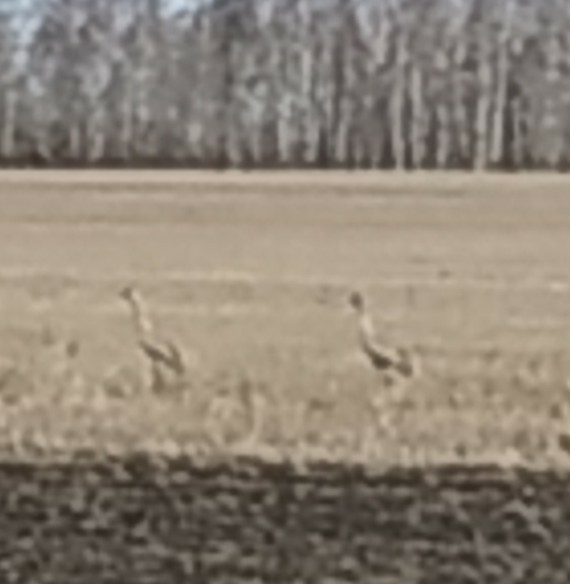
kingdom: Animalia
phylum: Chordata
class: Aves
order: Gruiformes
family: Gruidae
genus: Grus
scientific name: Grus grus
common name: Common crane
